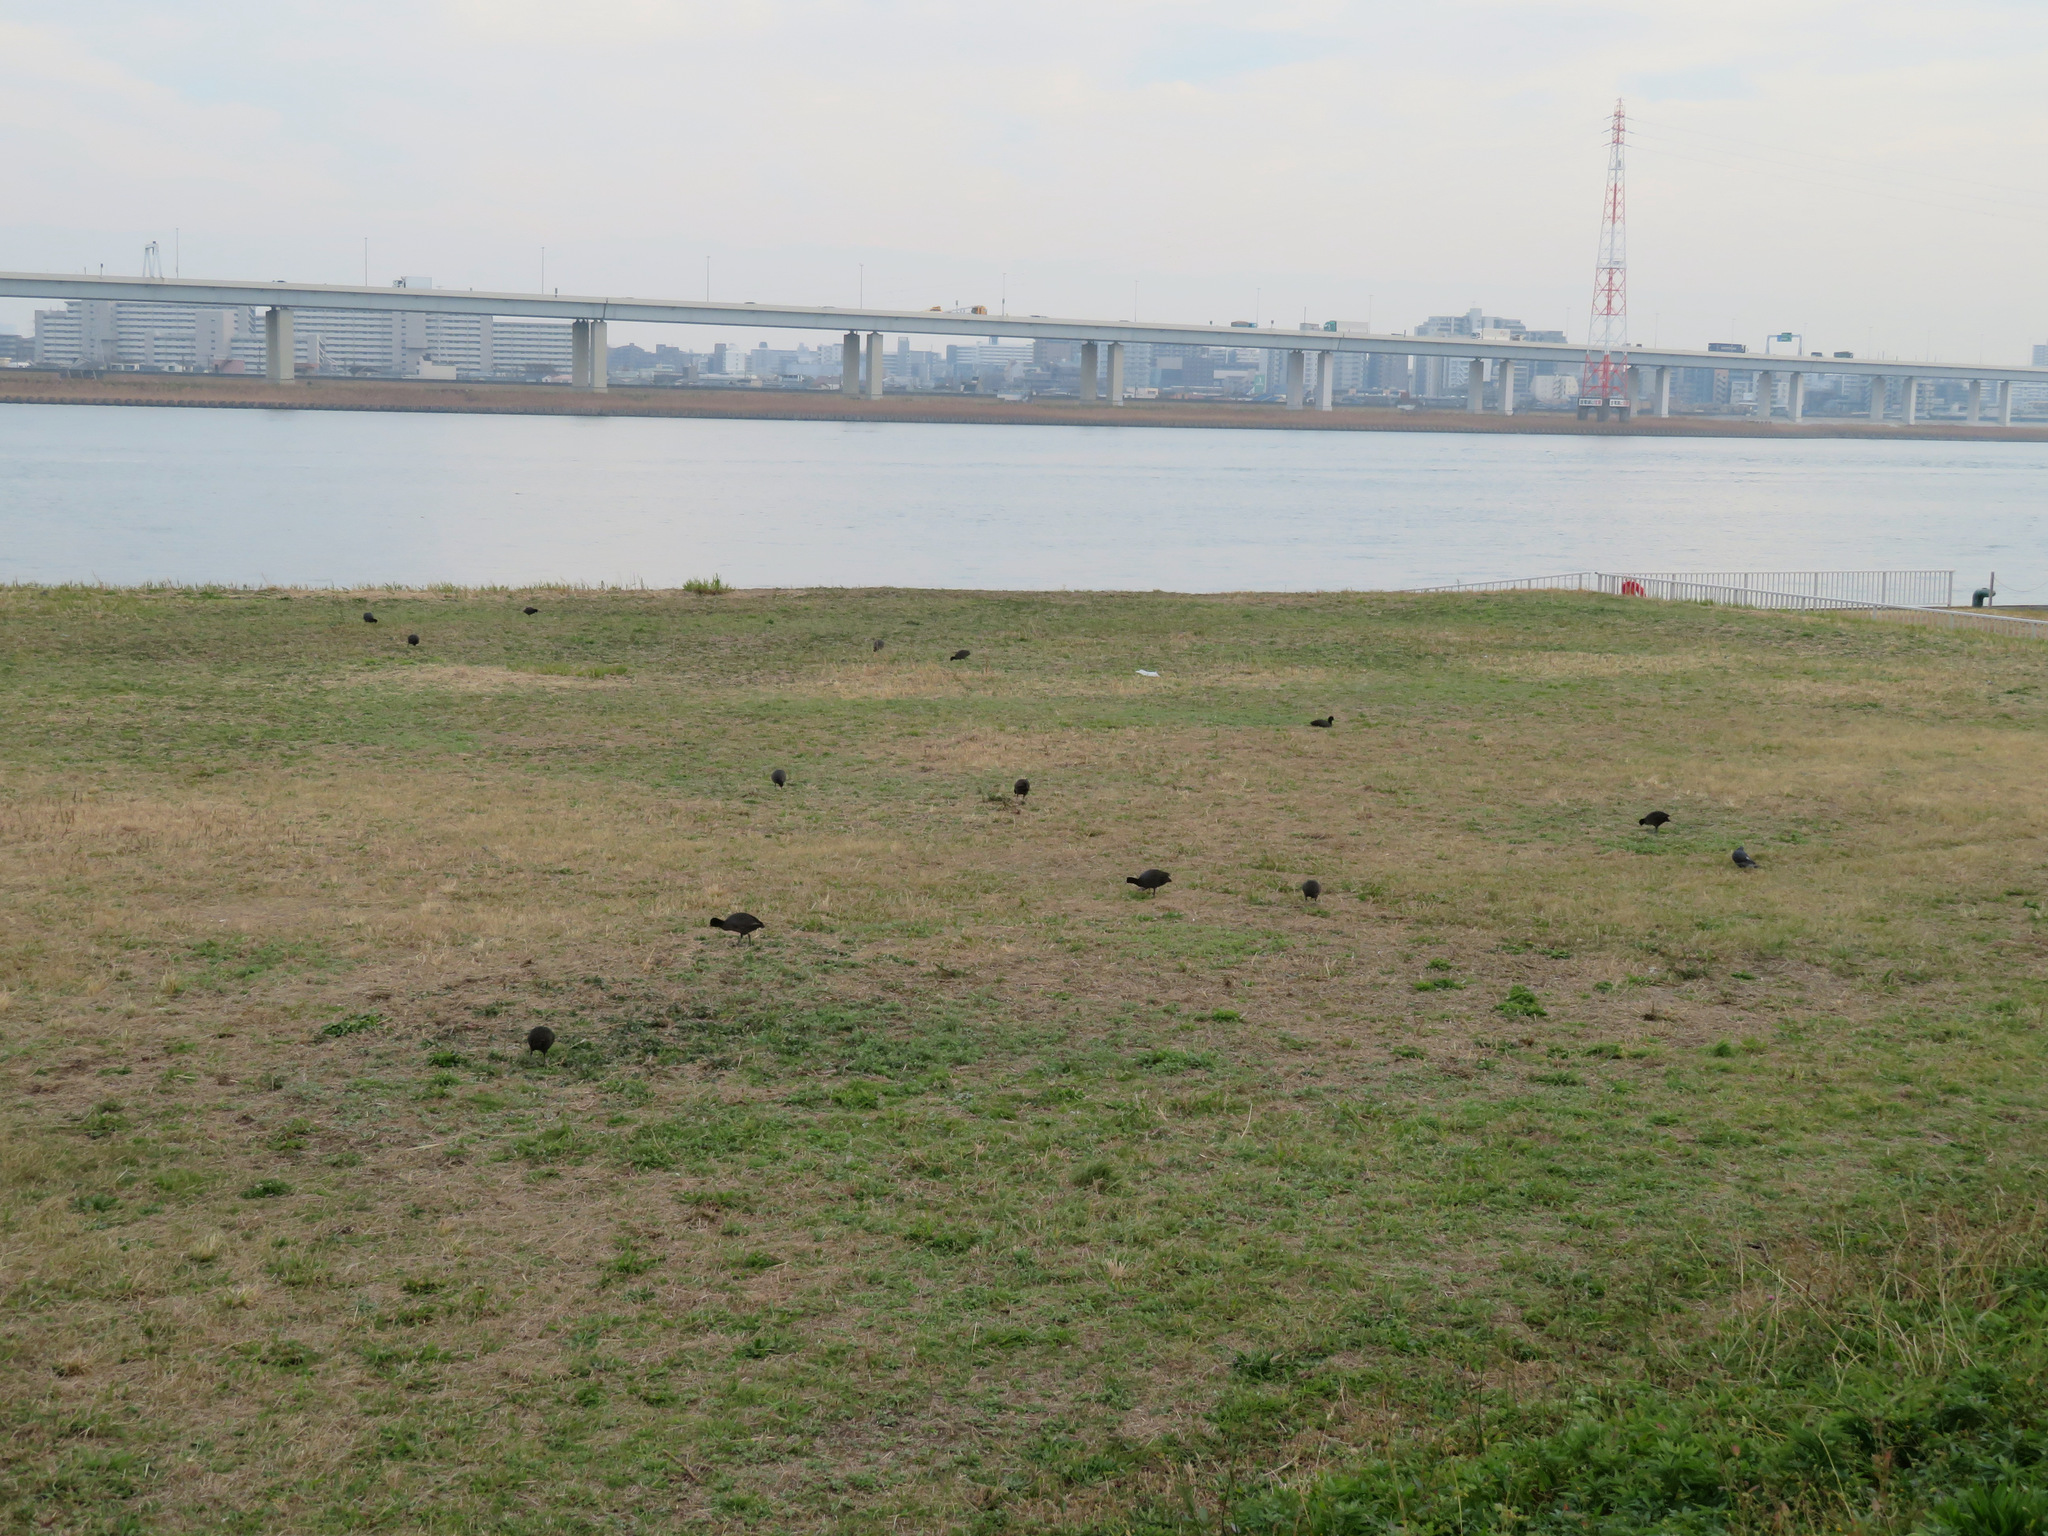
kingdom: Animalia
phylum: Chordata
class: Aves
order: Gruiformes
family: Rallidae
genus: Fulica
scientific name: Fulica atra
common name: Eurasian coot
